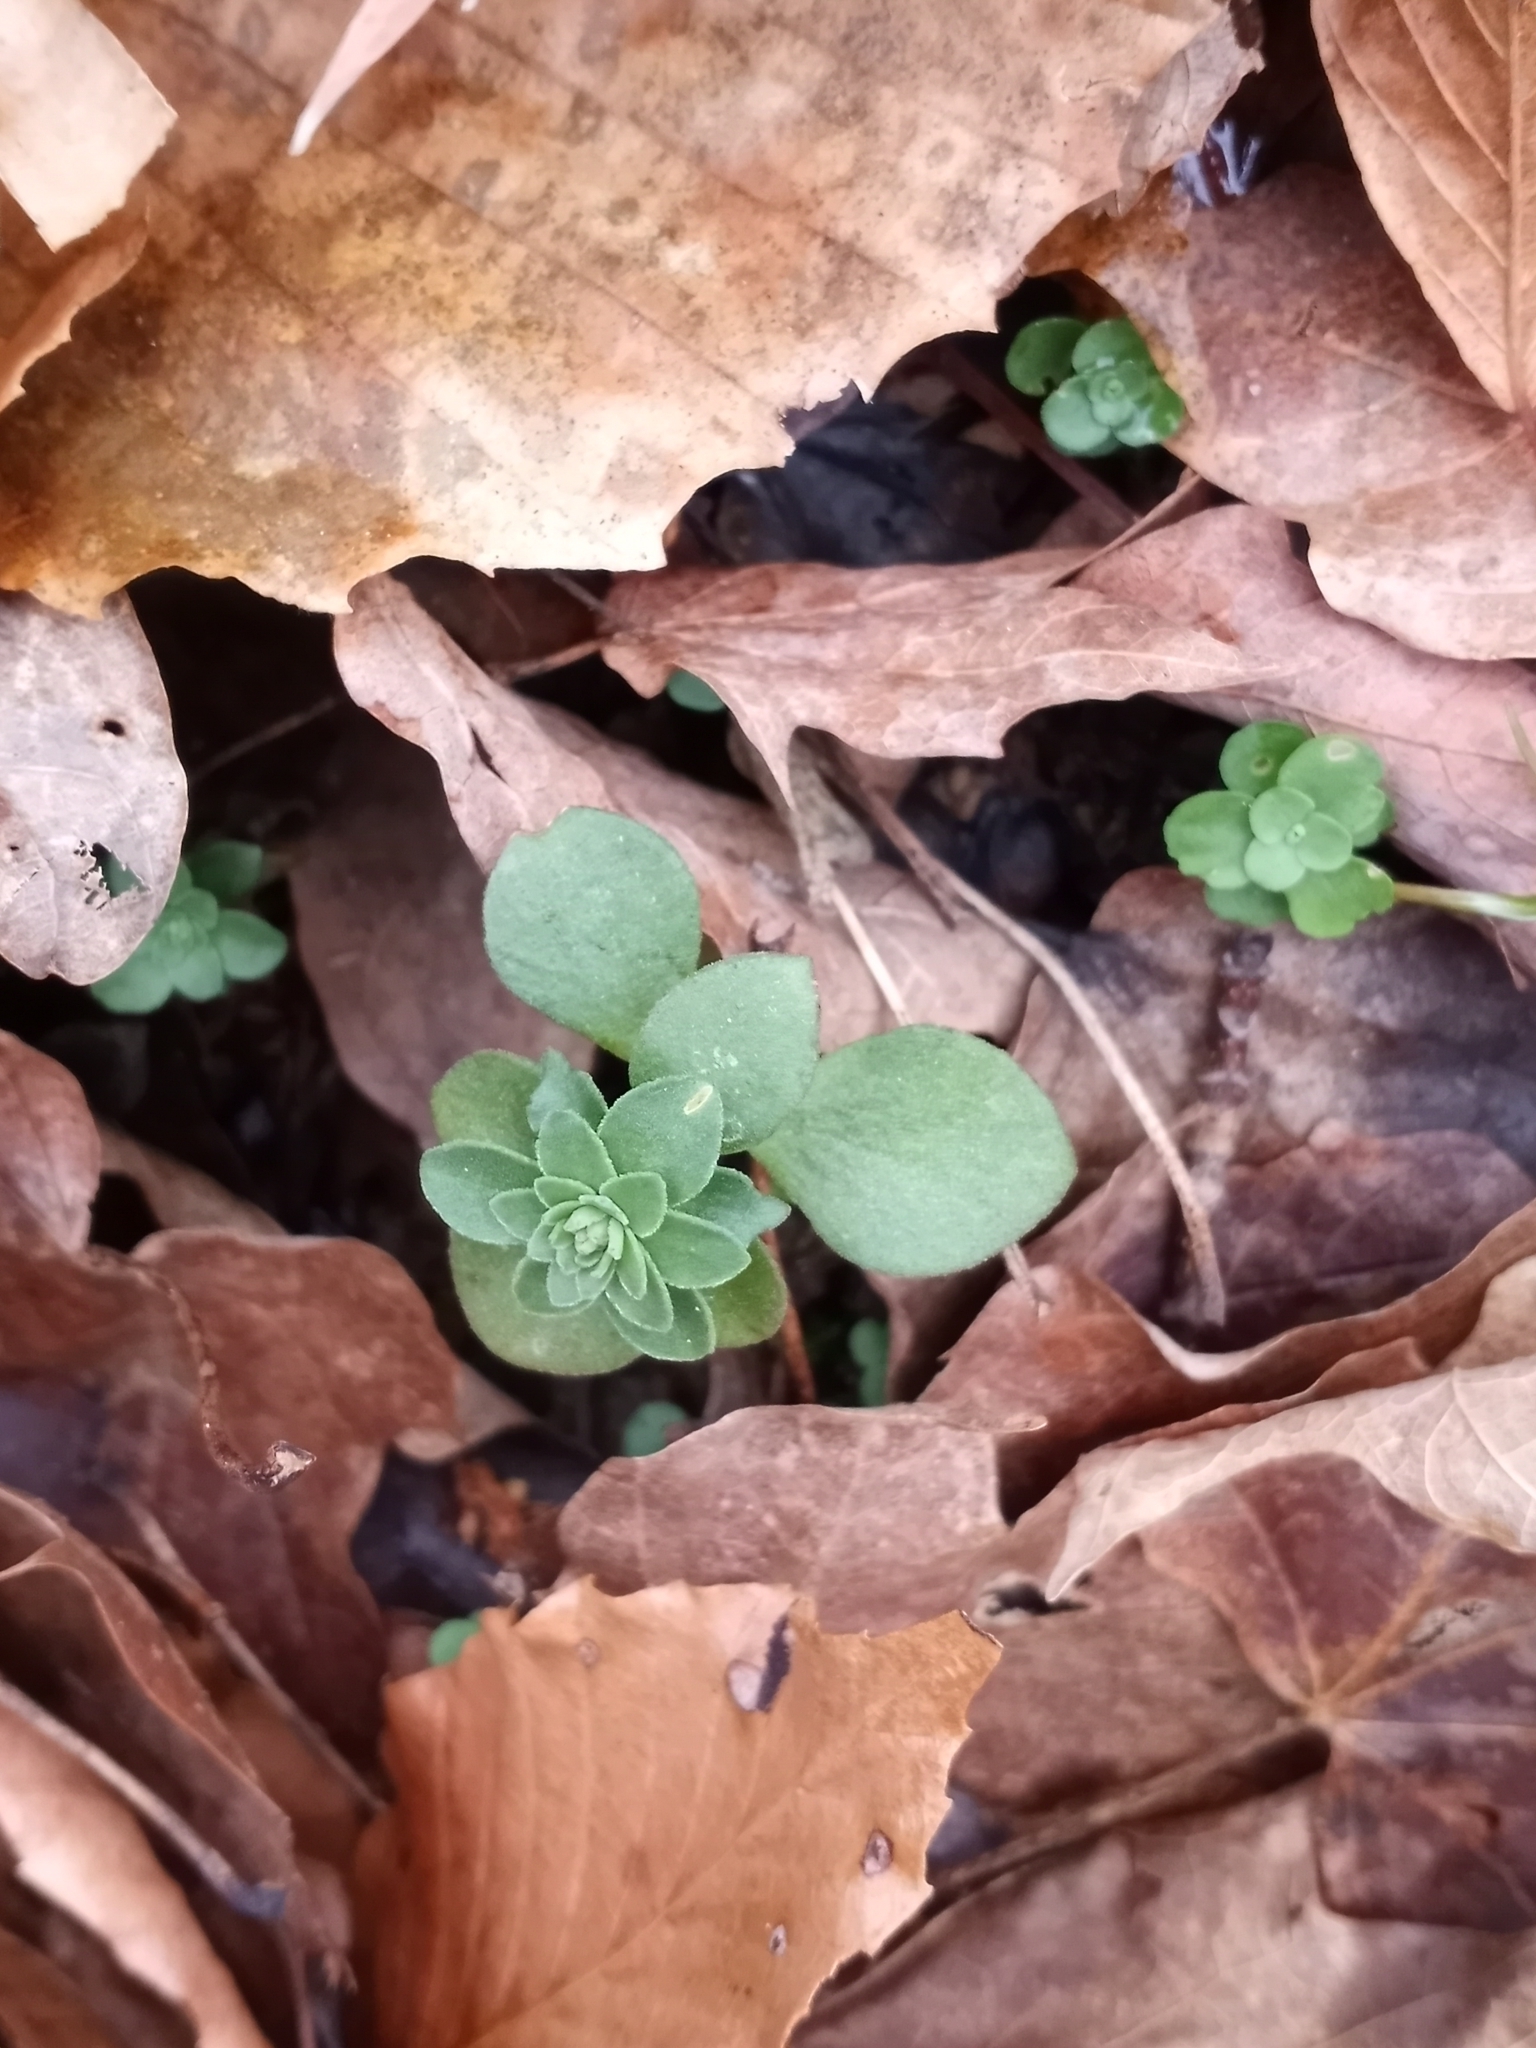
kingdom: Plantae
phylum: Tracheophyta
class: Magnoliopsida
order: Saxifragales
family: Crassulaceae
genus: Sedum
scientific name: Sedum ternatum
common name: Wild stonecrop
